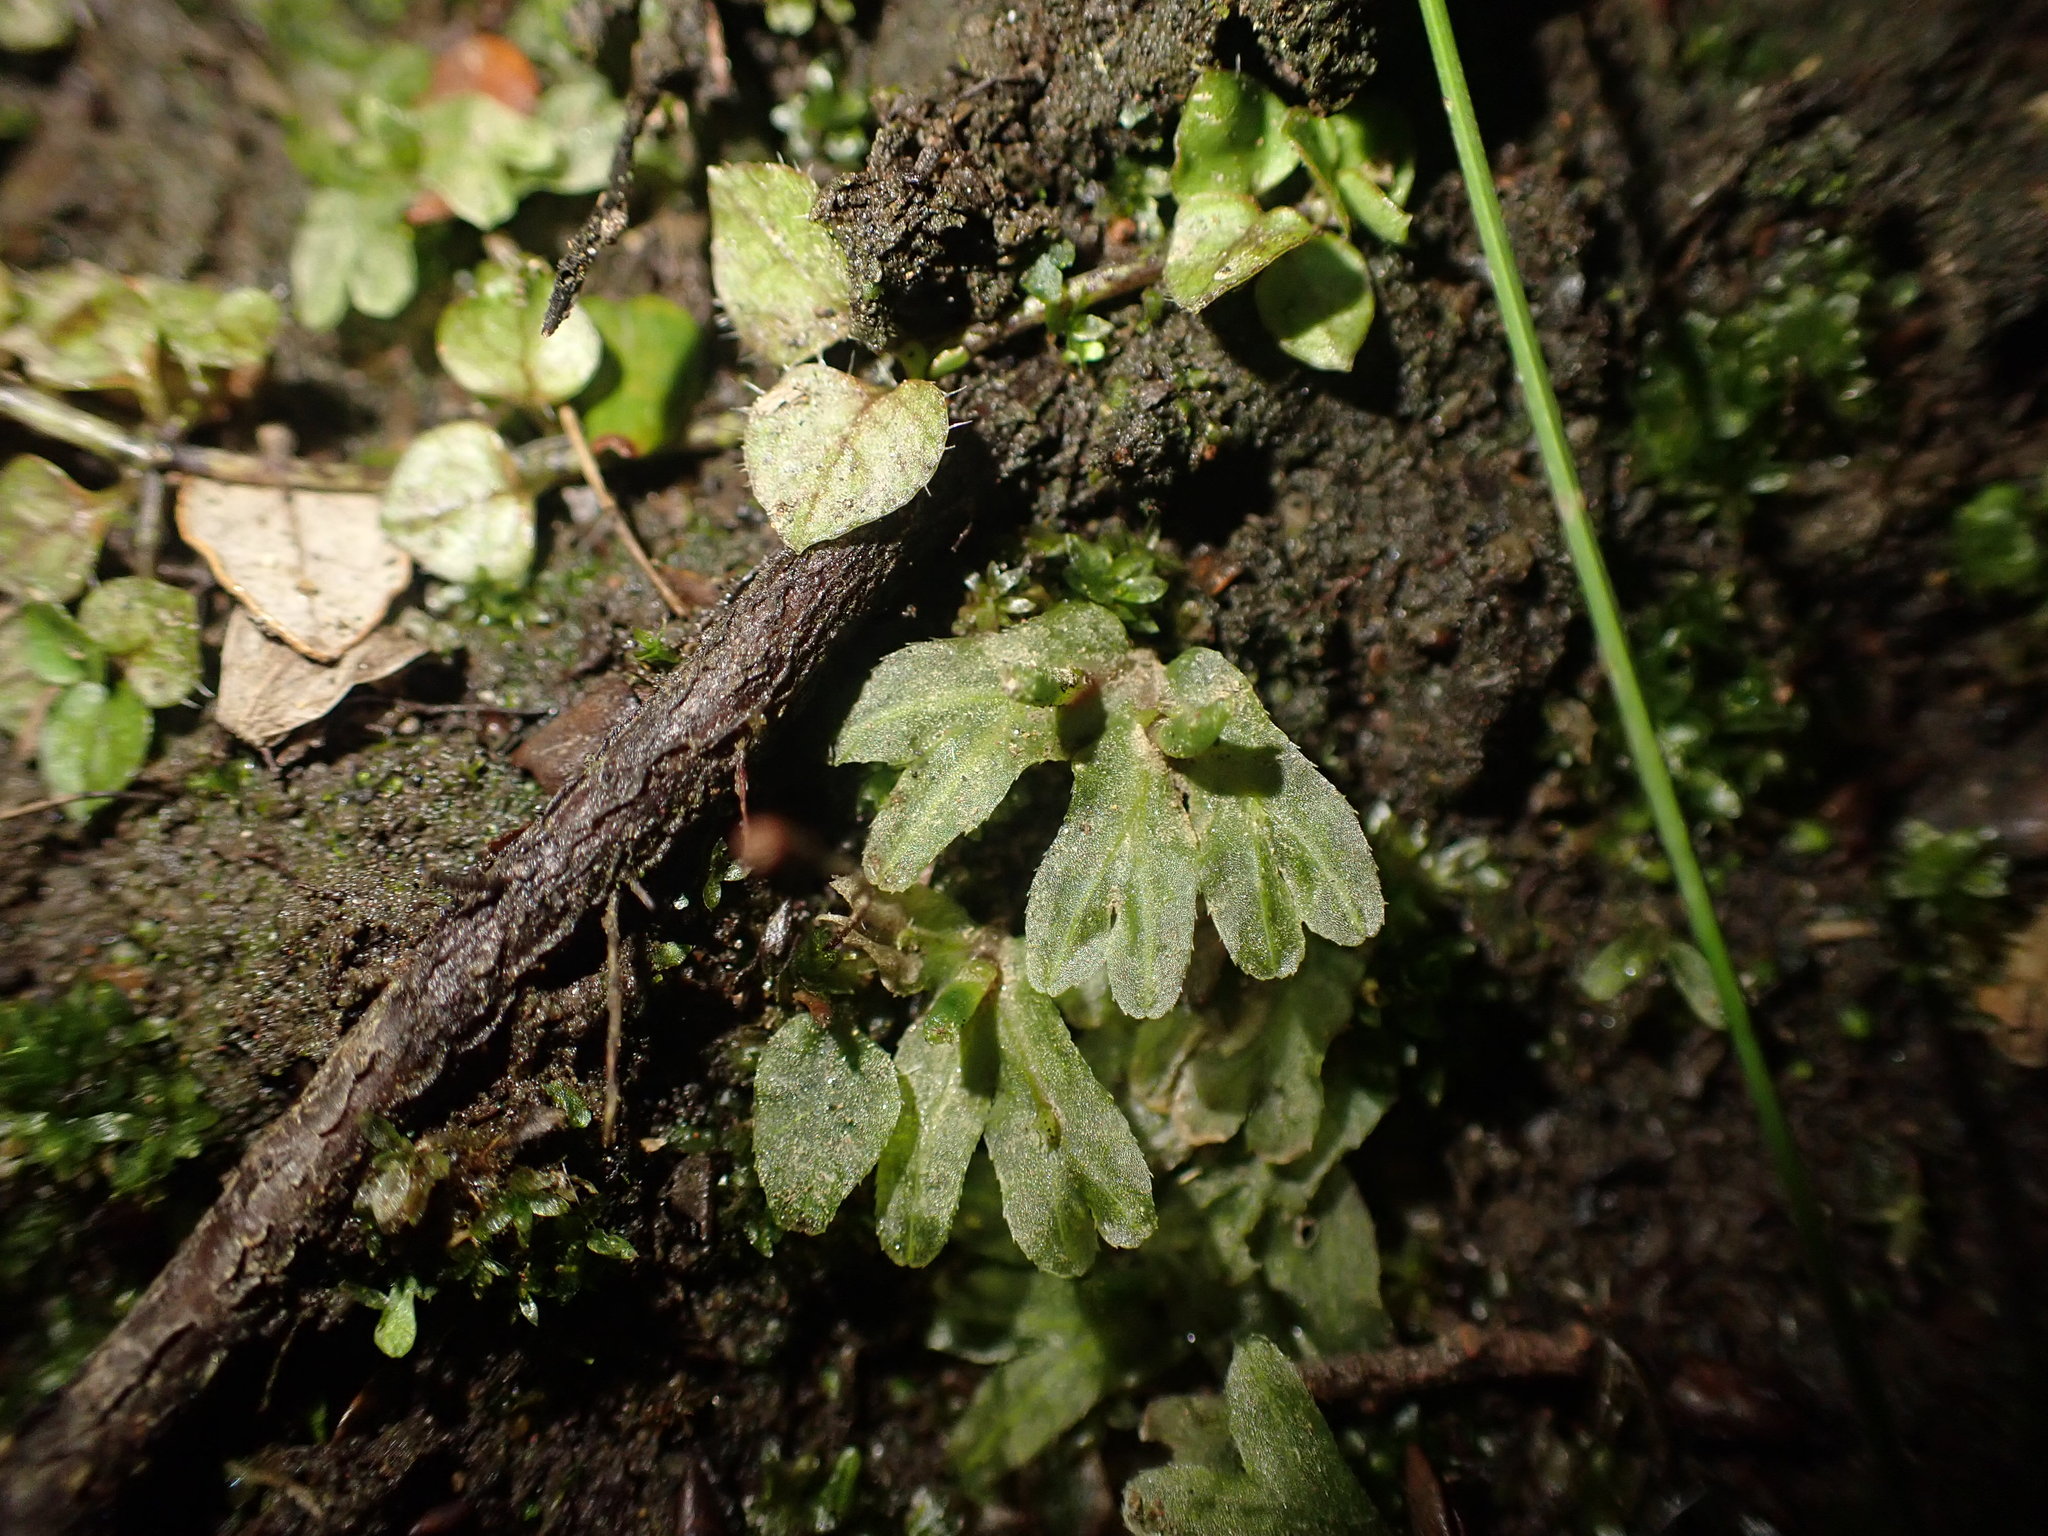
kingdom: Plantae
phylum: Marchantiophyta
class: Jungermanniopsida
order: Pallaviciniales
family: Pallaviciniaceae
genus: Symphyogyna
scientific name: Symphyogyna hymenophyllum
